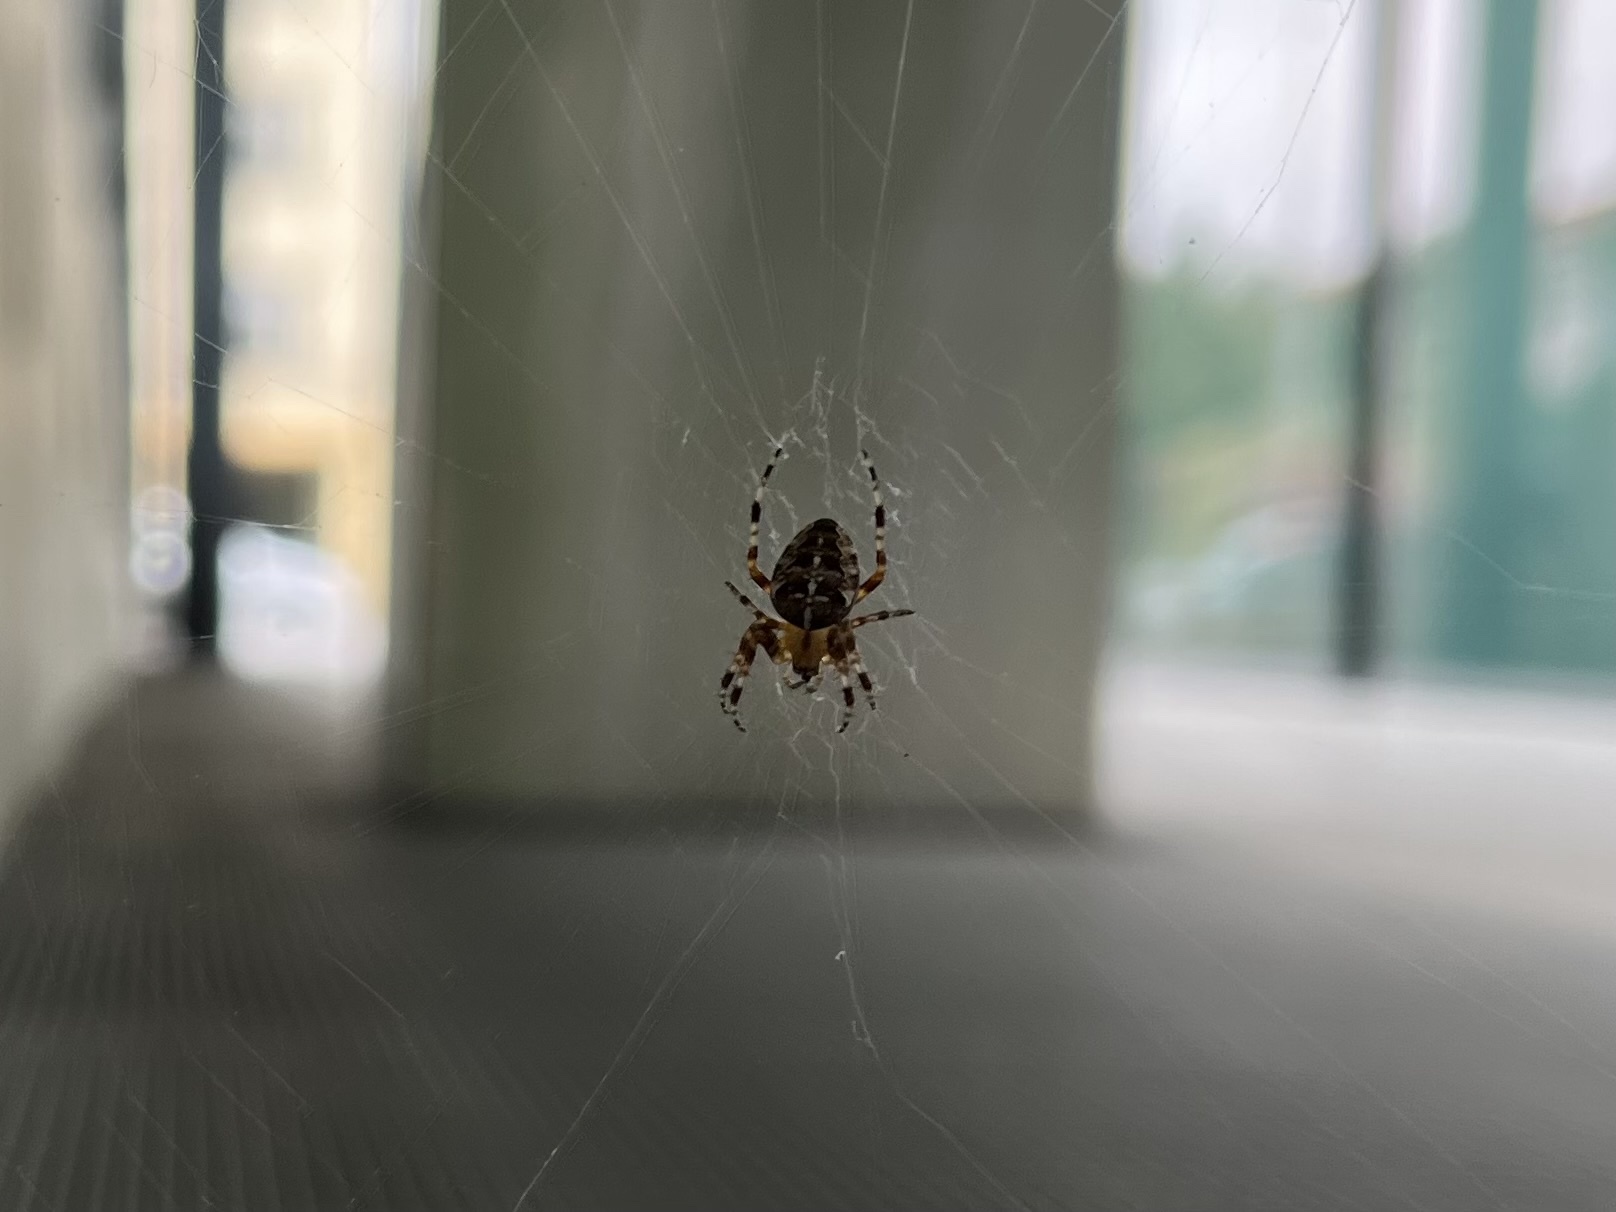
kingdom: Animalia
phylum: Arthropoda
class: Arachnida
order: Araneae
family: Araneidae
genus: Araneus
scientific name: Araneus diadematus
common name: Cross orbweaver
